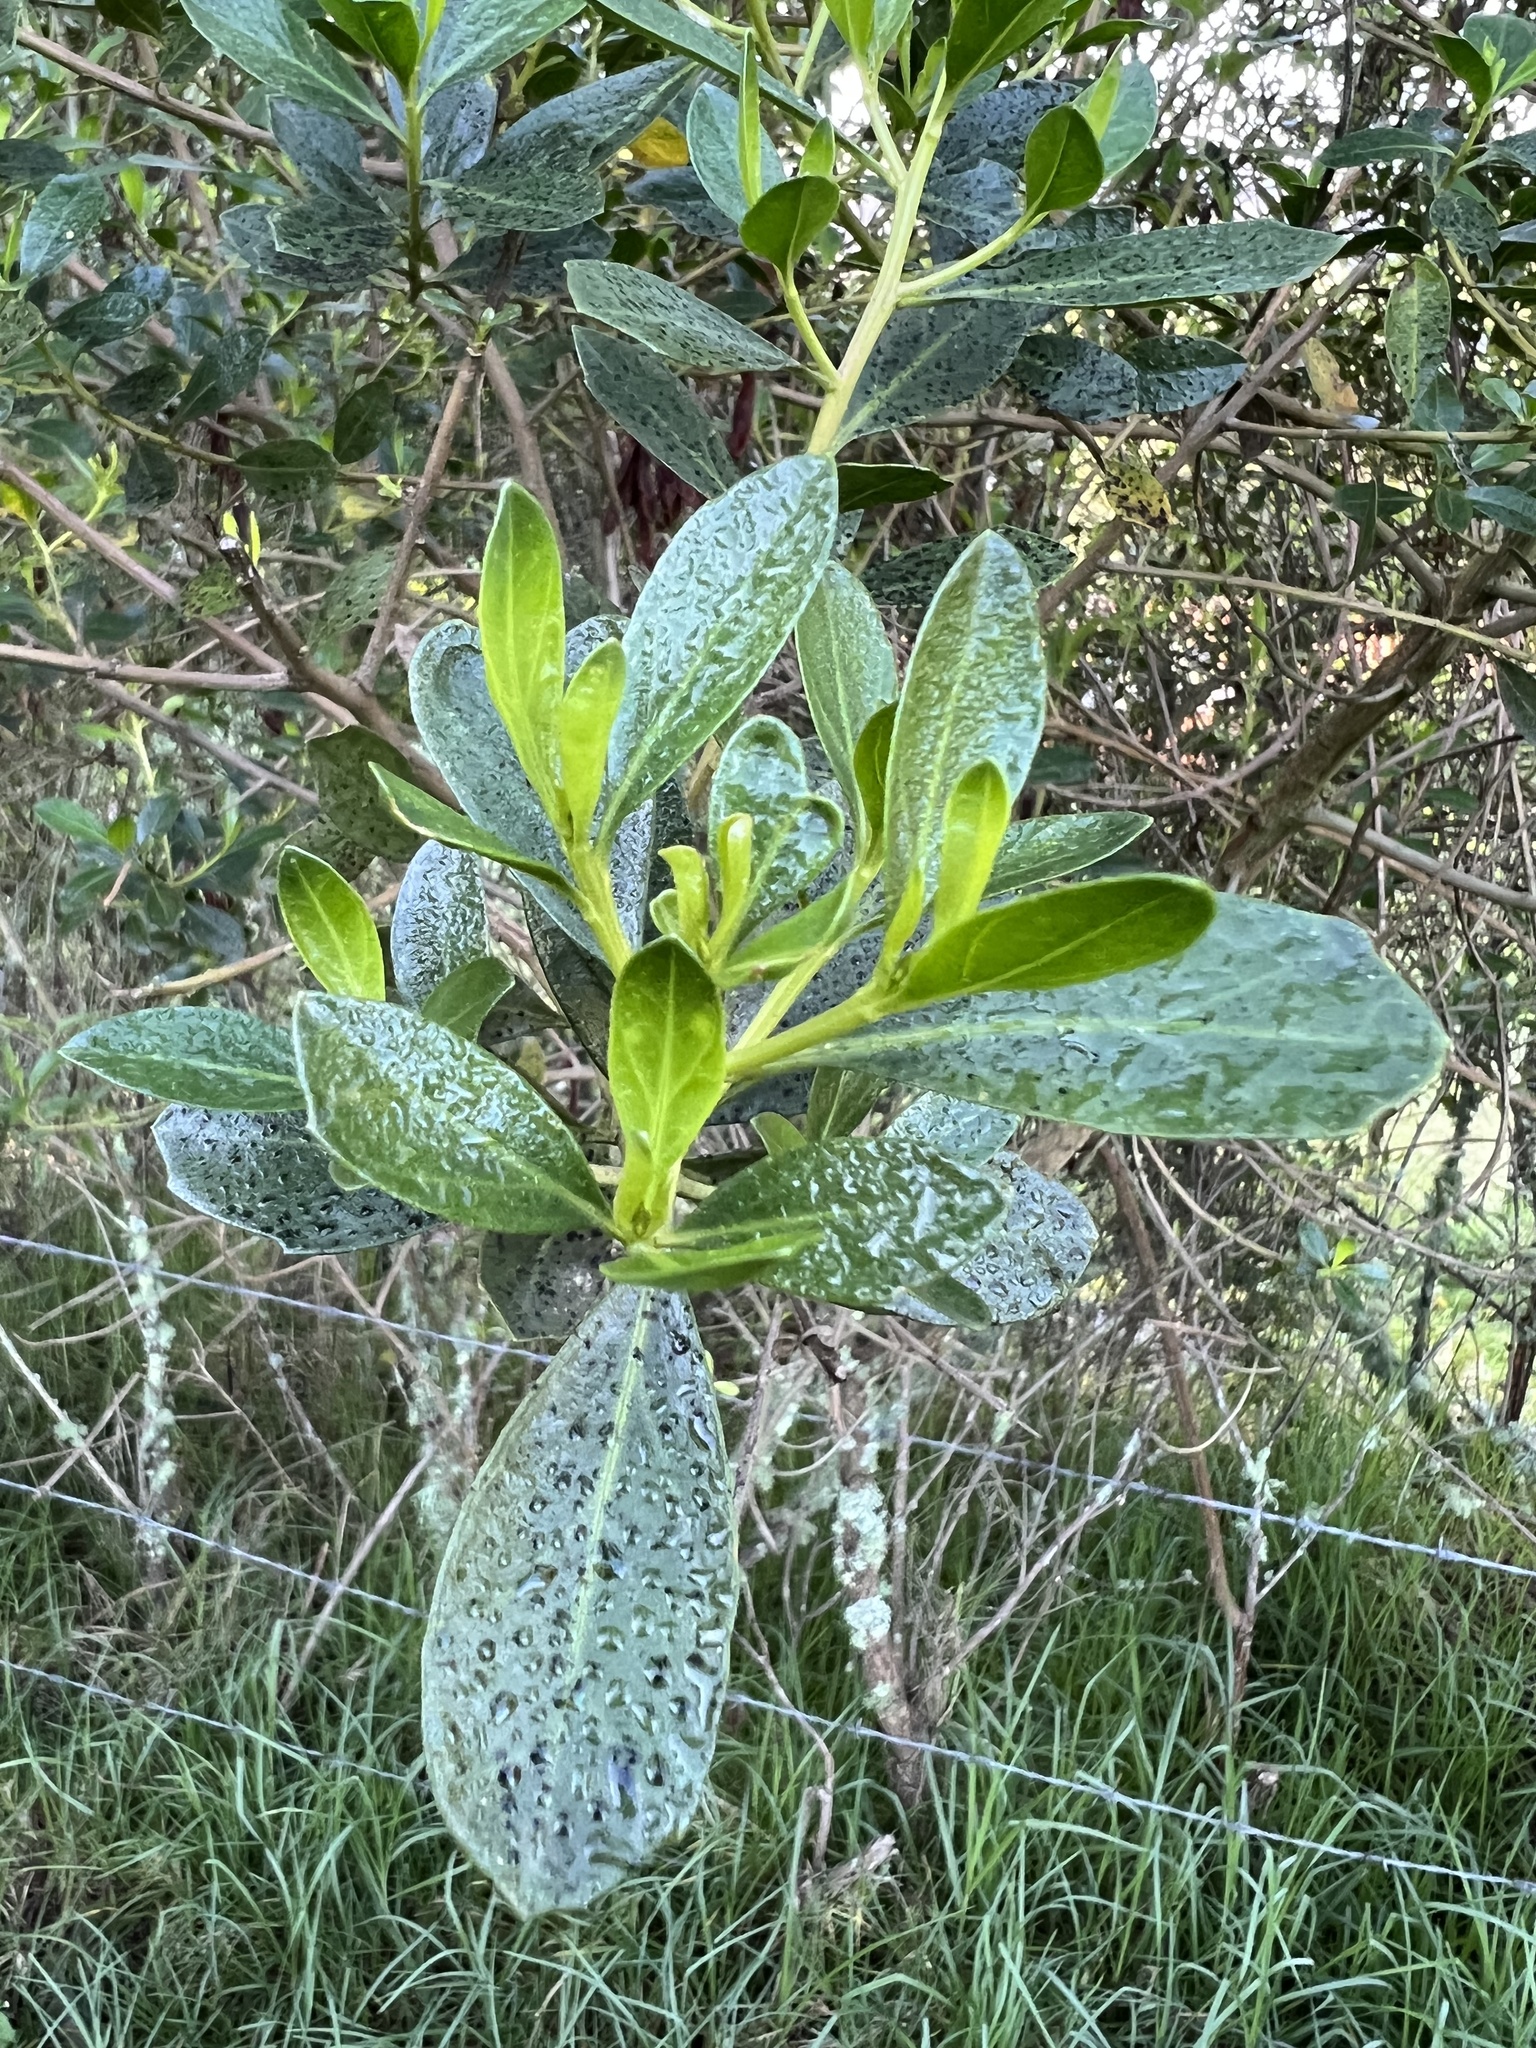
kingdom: Plantae
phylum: Tracheophyta
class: Magnoliopsida
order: Asterales
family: Asteraceae
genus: Baccharis
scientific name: Baccharis macrantha
